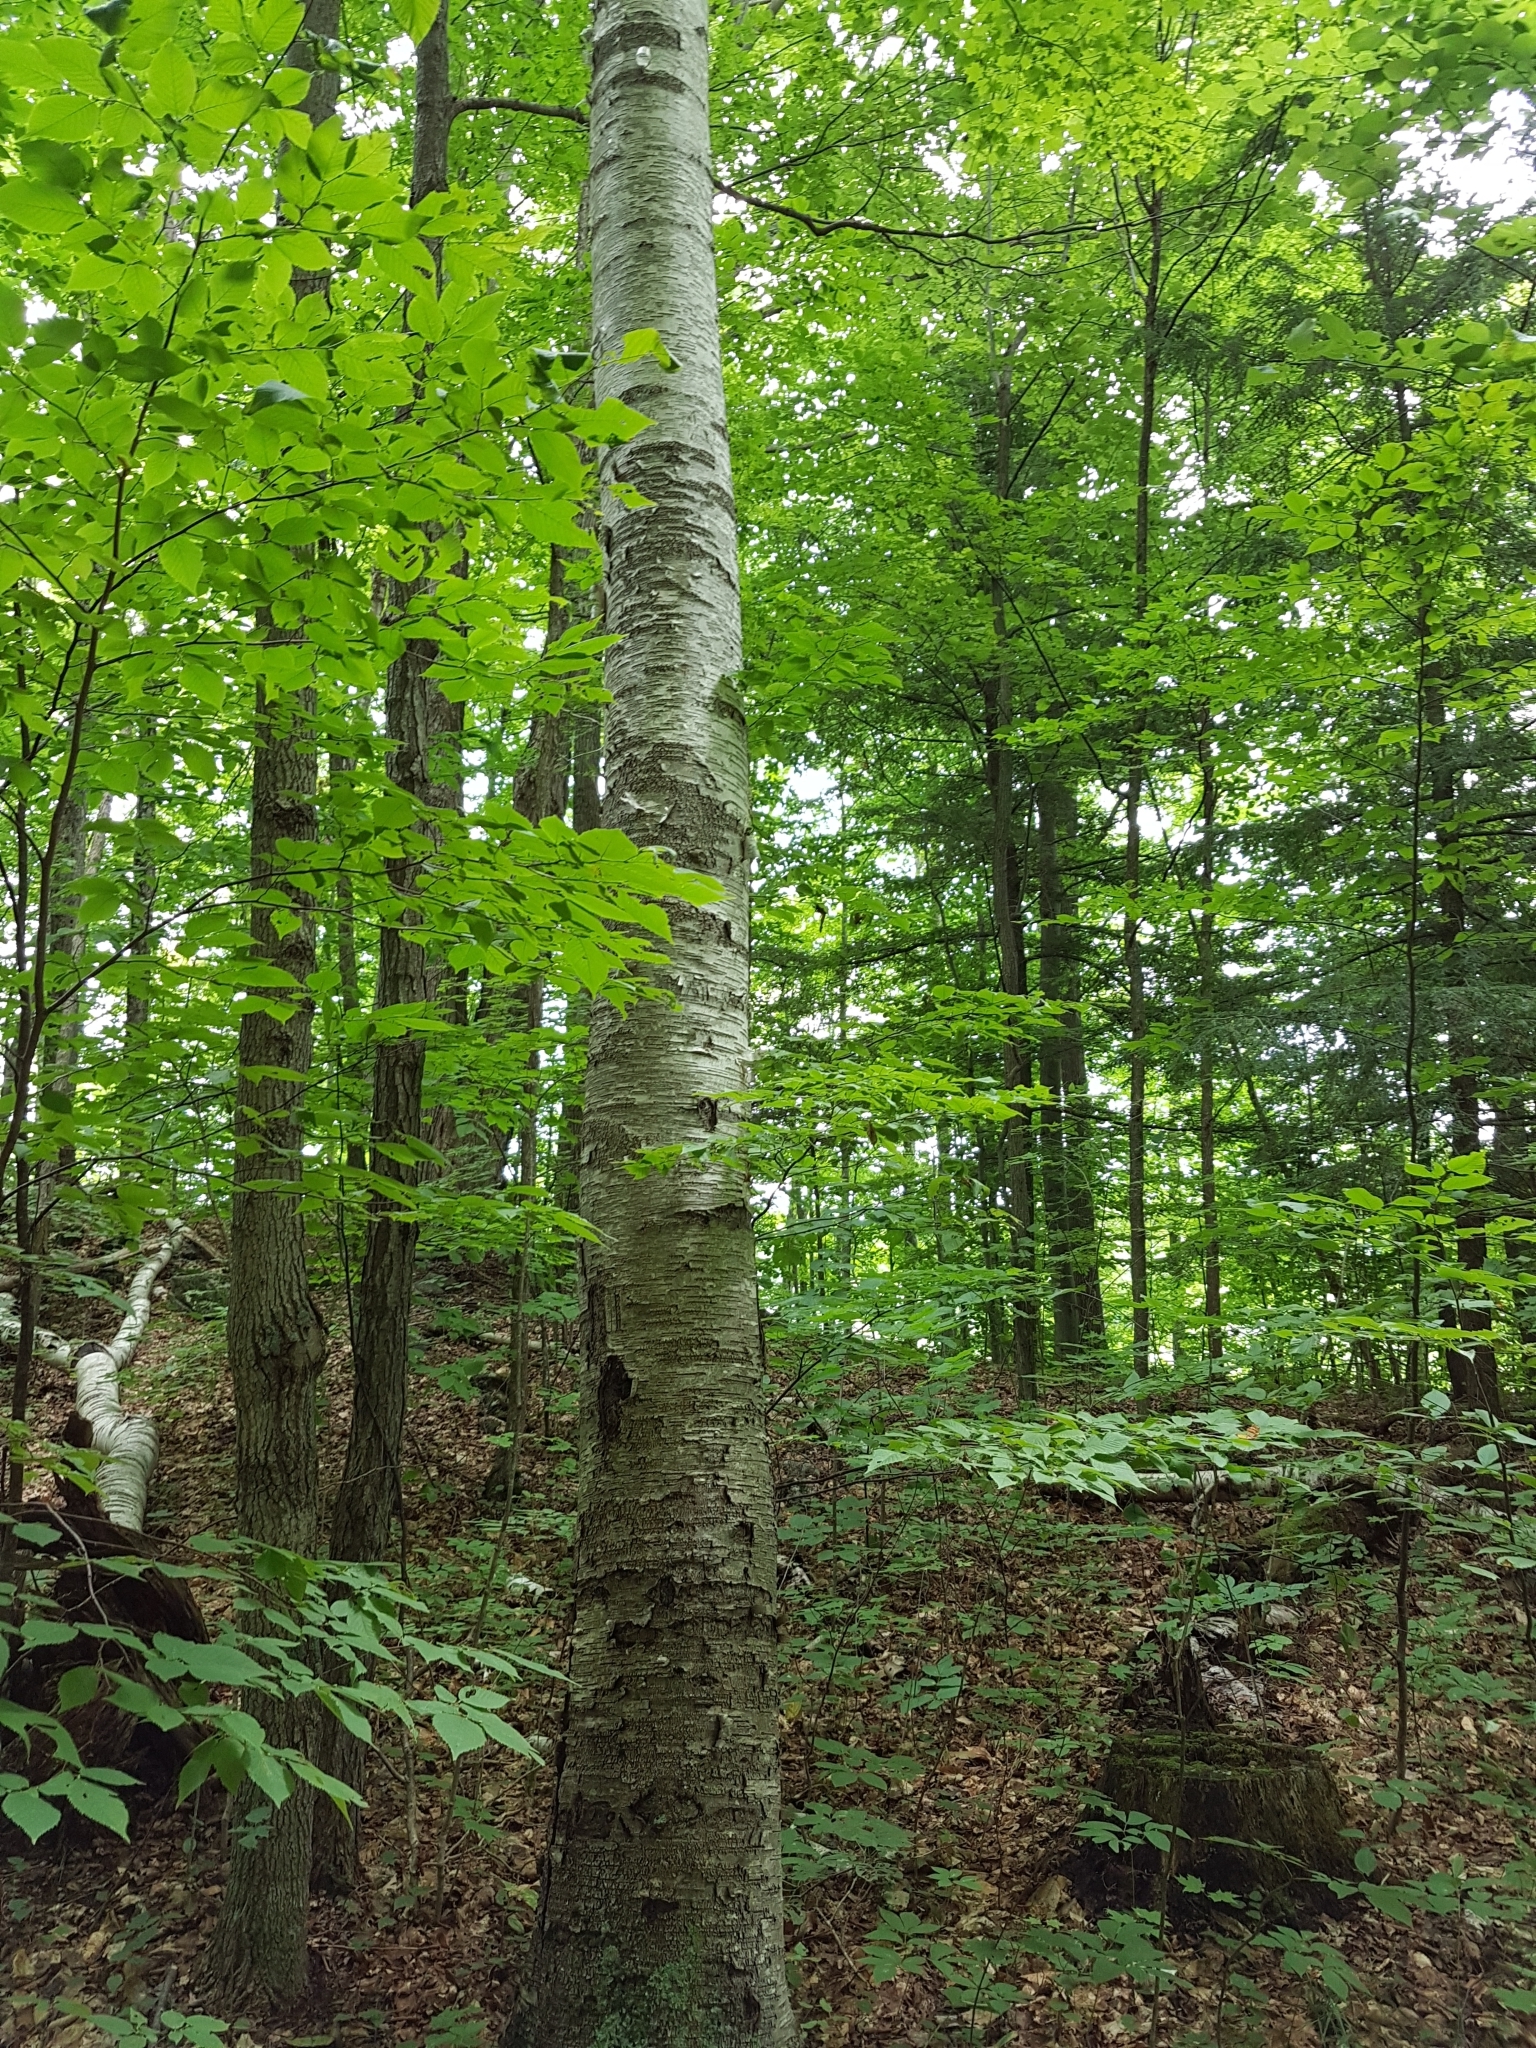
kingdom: Plantae
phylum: Tracheophyta
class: Magnoliopsida
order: Fagales
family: Betulaceae
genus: Betula
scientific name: Betula papyrifera
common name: Paper birch
